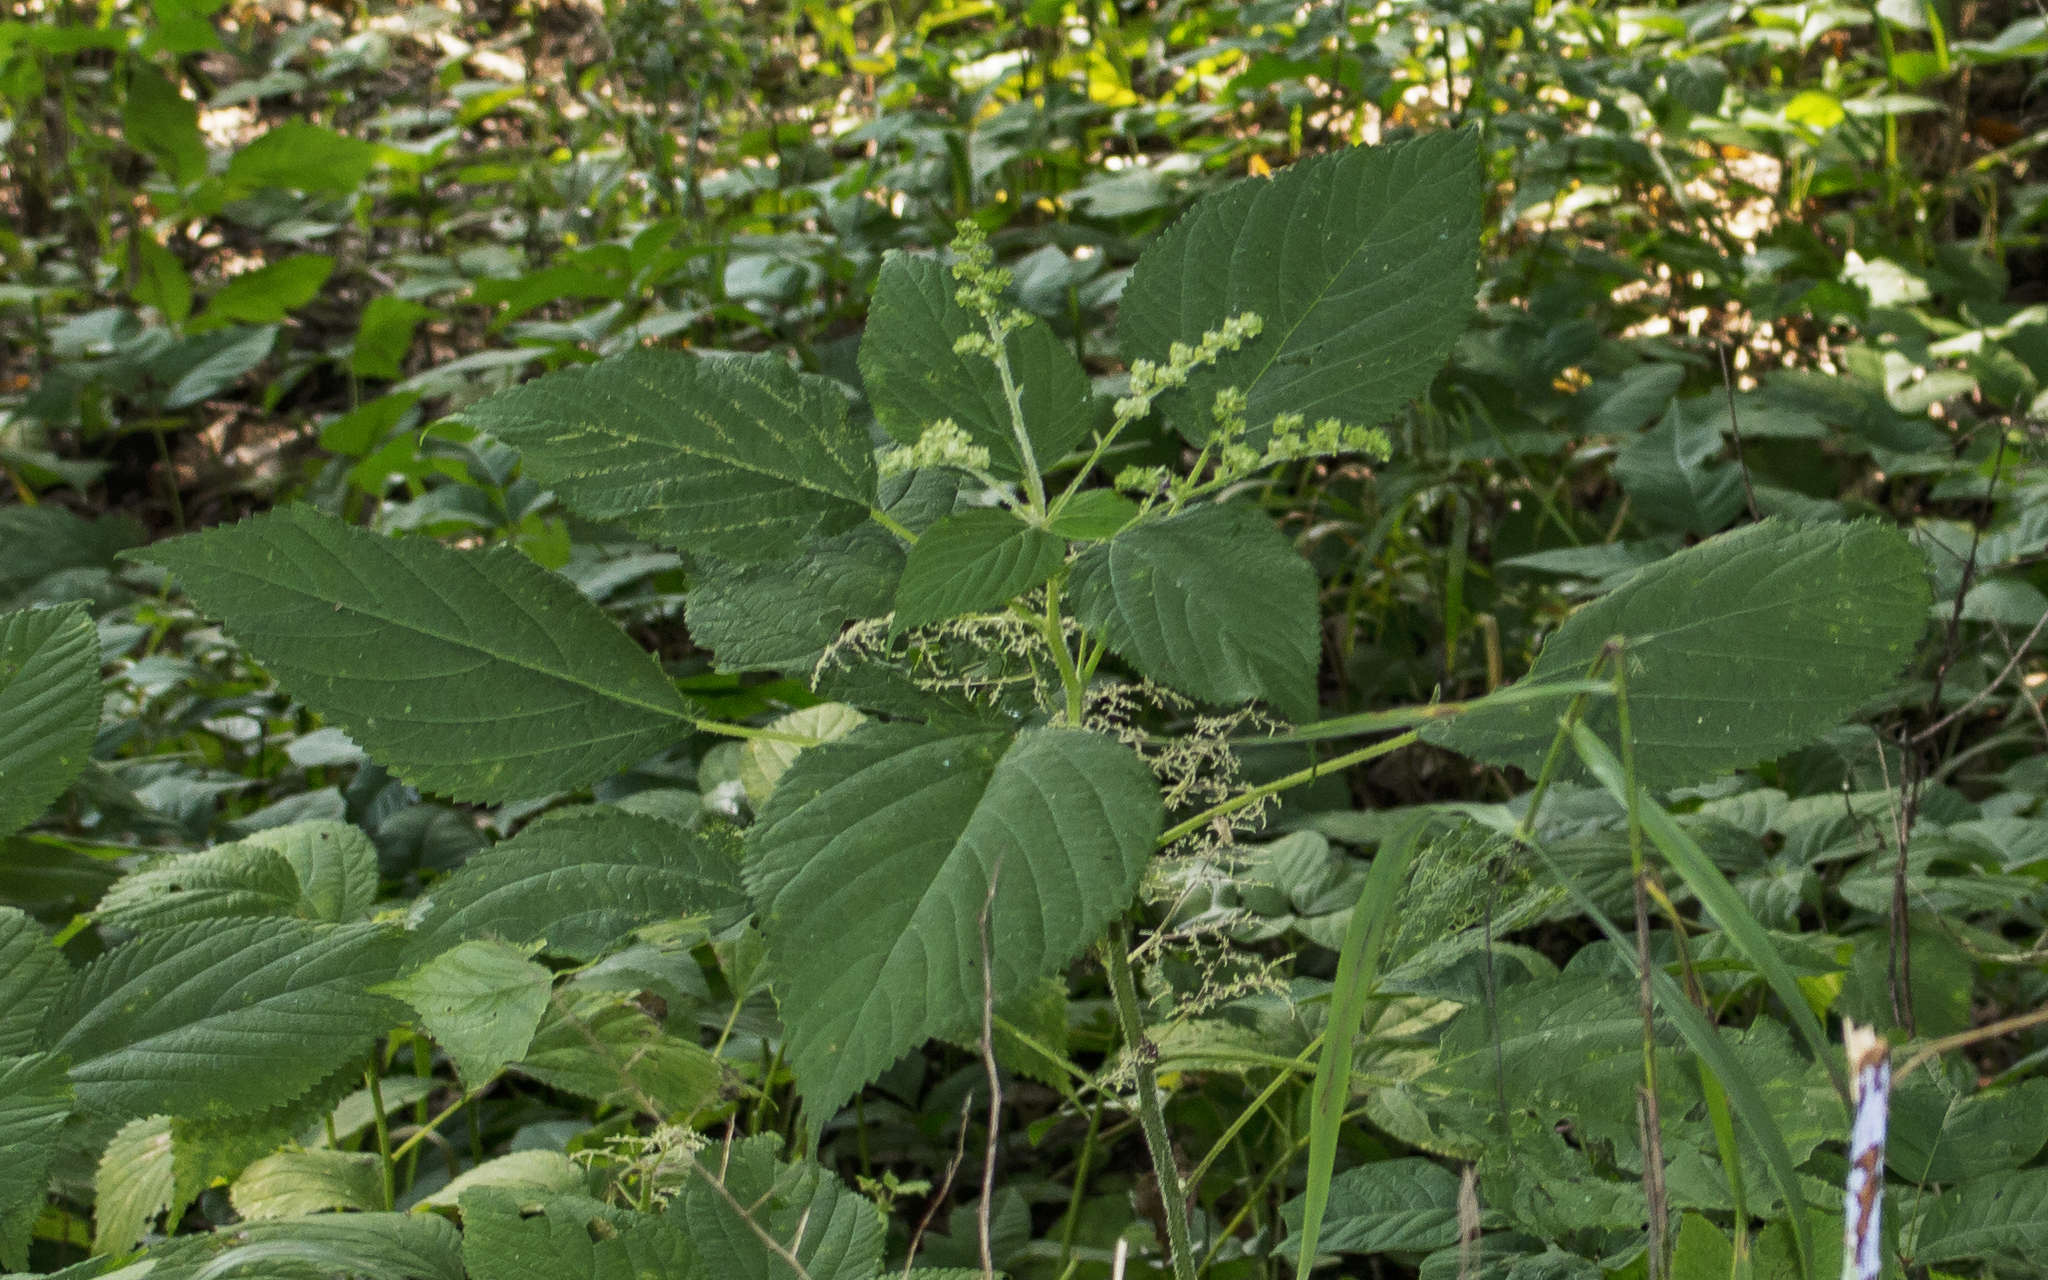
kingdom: Plantae
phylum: Tracheophyta
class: Magnoliopsida
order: Rosales
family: Urticaceae
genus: Laportea
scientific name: Laportea canadensis
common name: Canada nettle
